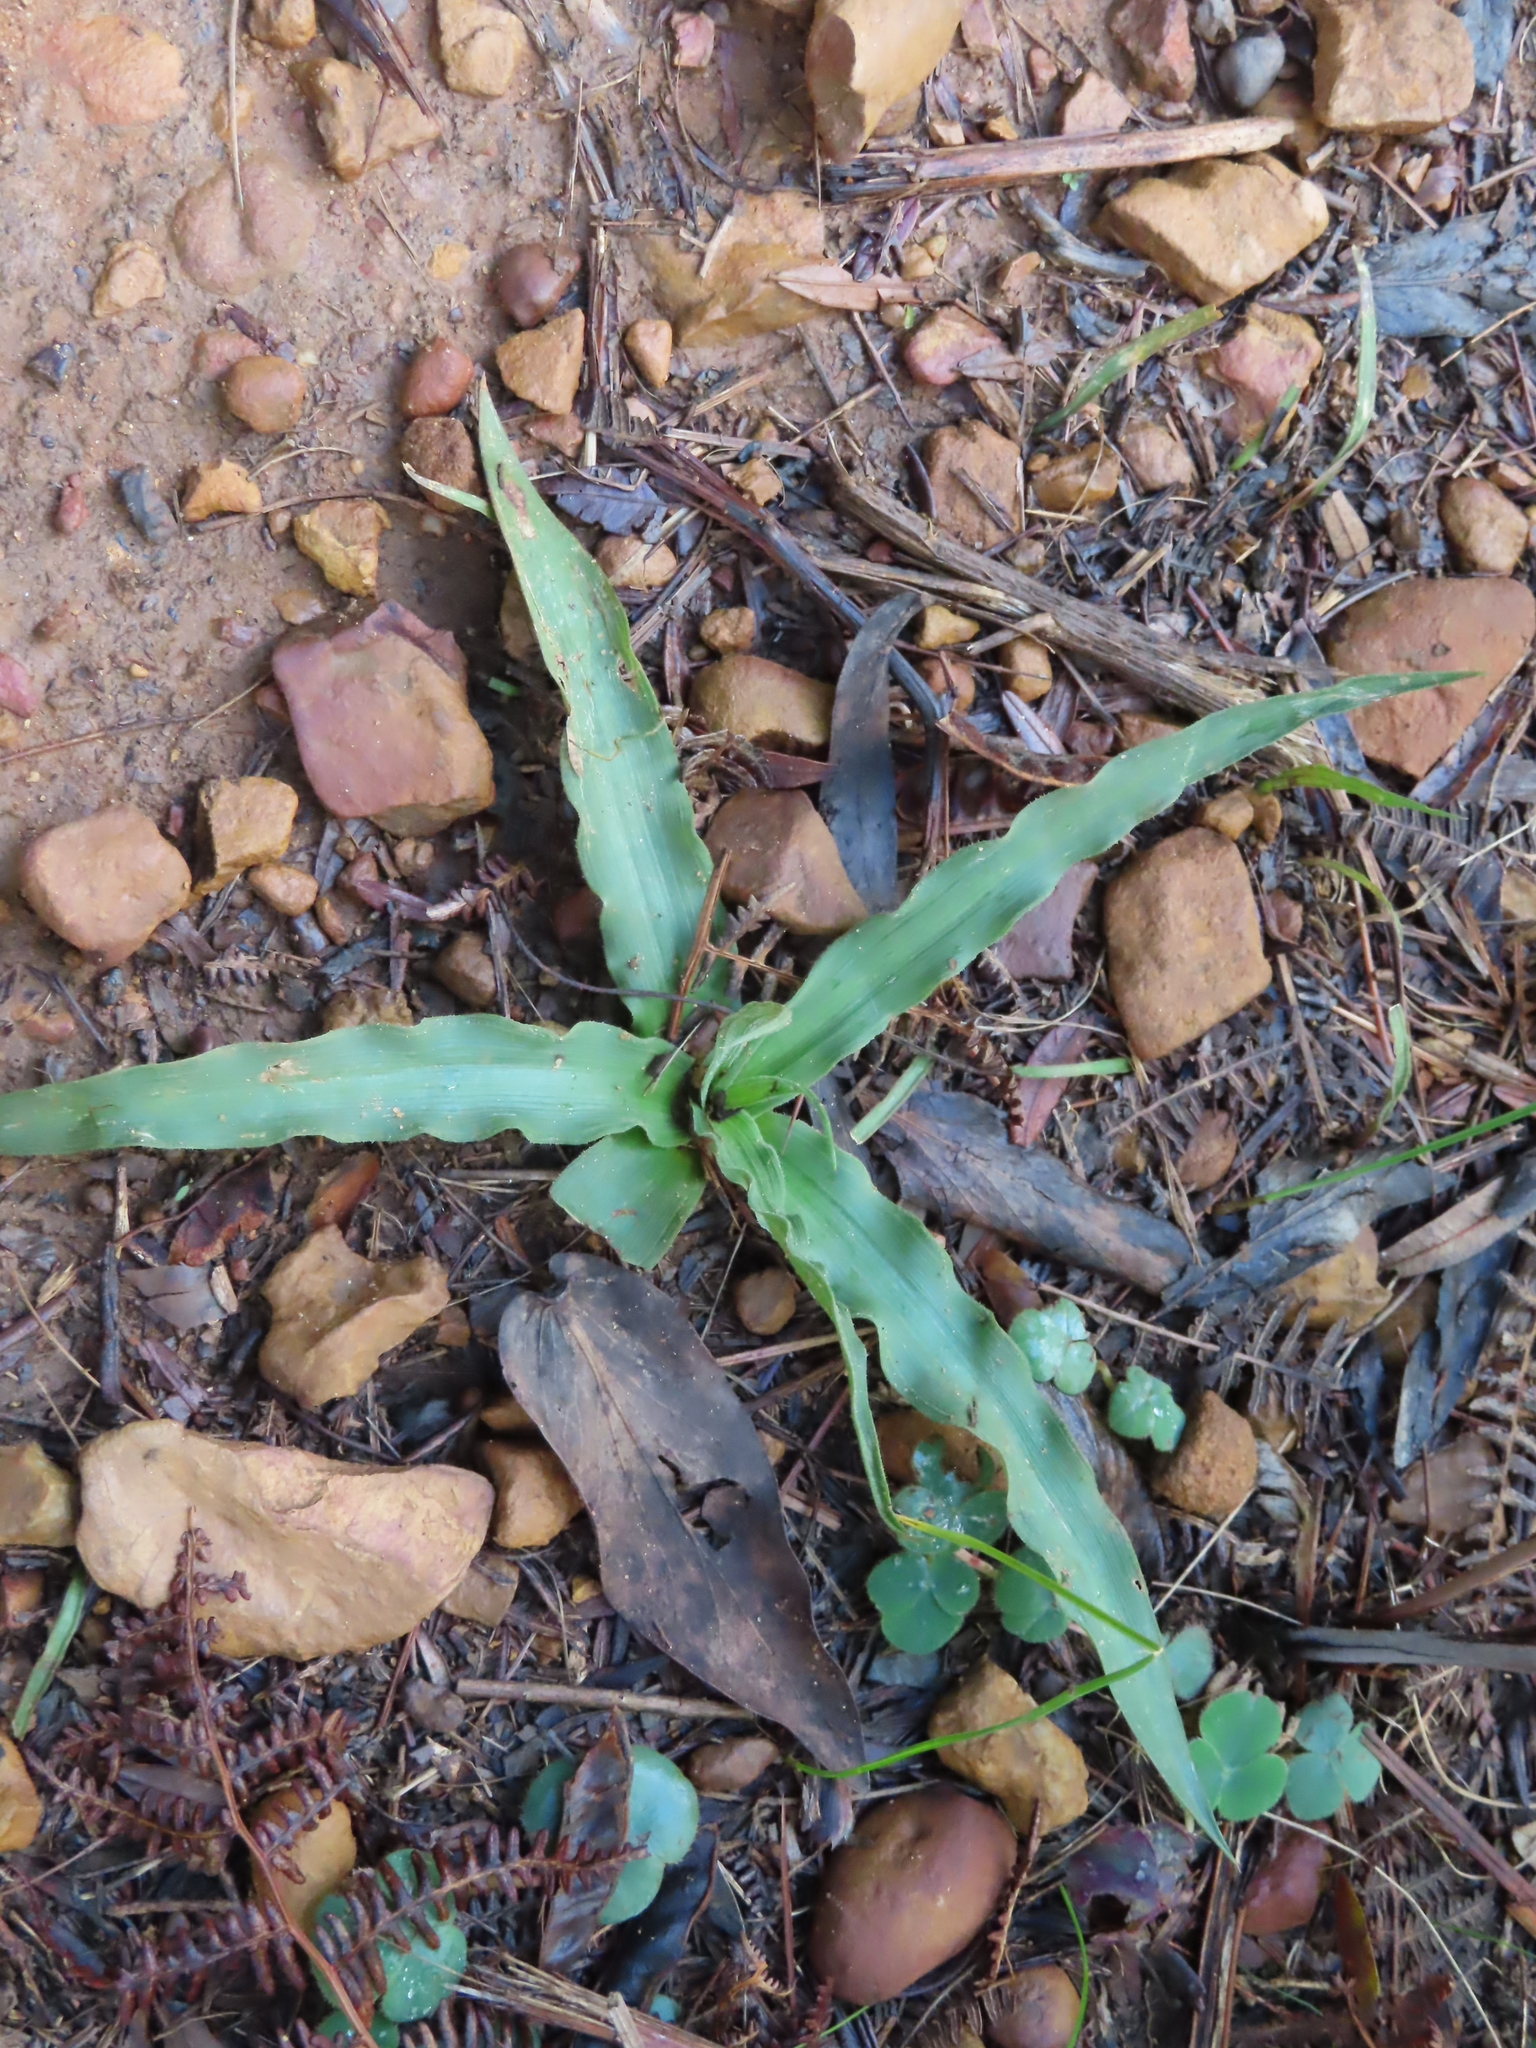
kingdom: Plantae
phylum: Tracheophyta
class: Liliopsida
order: Asparagales
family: Tecophilaeaceae
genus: Cyanella
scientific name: Cyanella hyacinthoides
